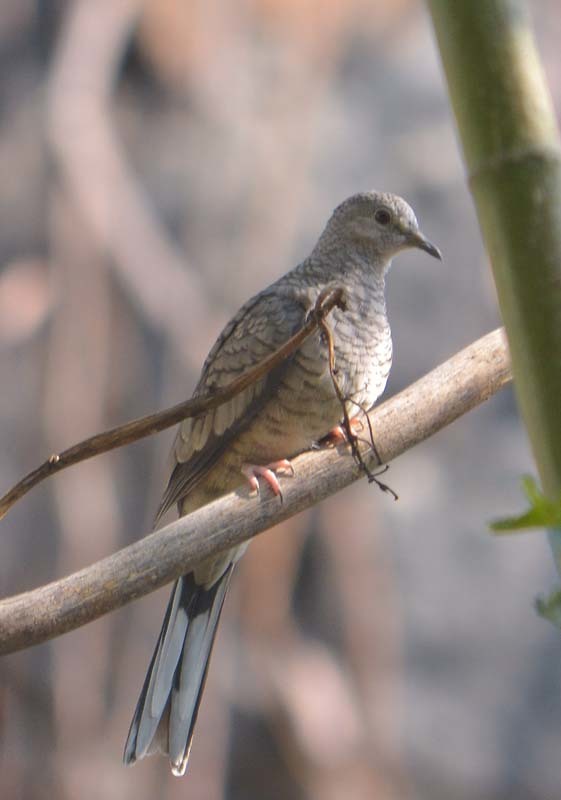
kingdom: Animalia
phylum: Chordata
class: Aves
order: Columbiformes
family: Columbidae
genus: Columbina
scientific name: Columbina inca
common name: Inca dove
